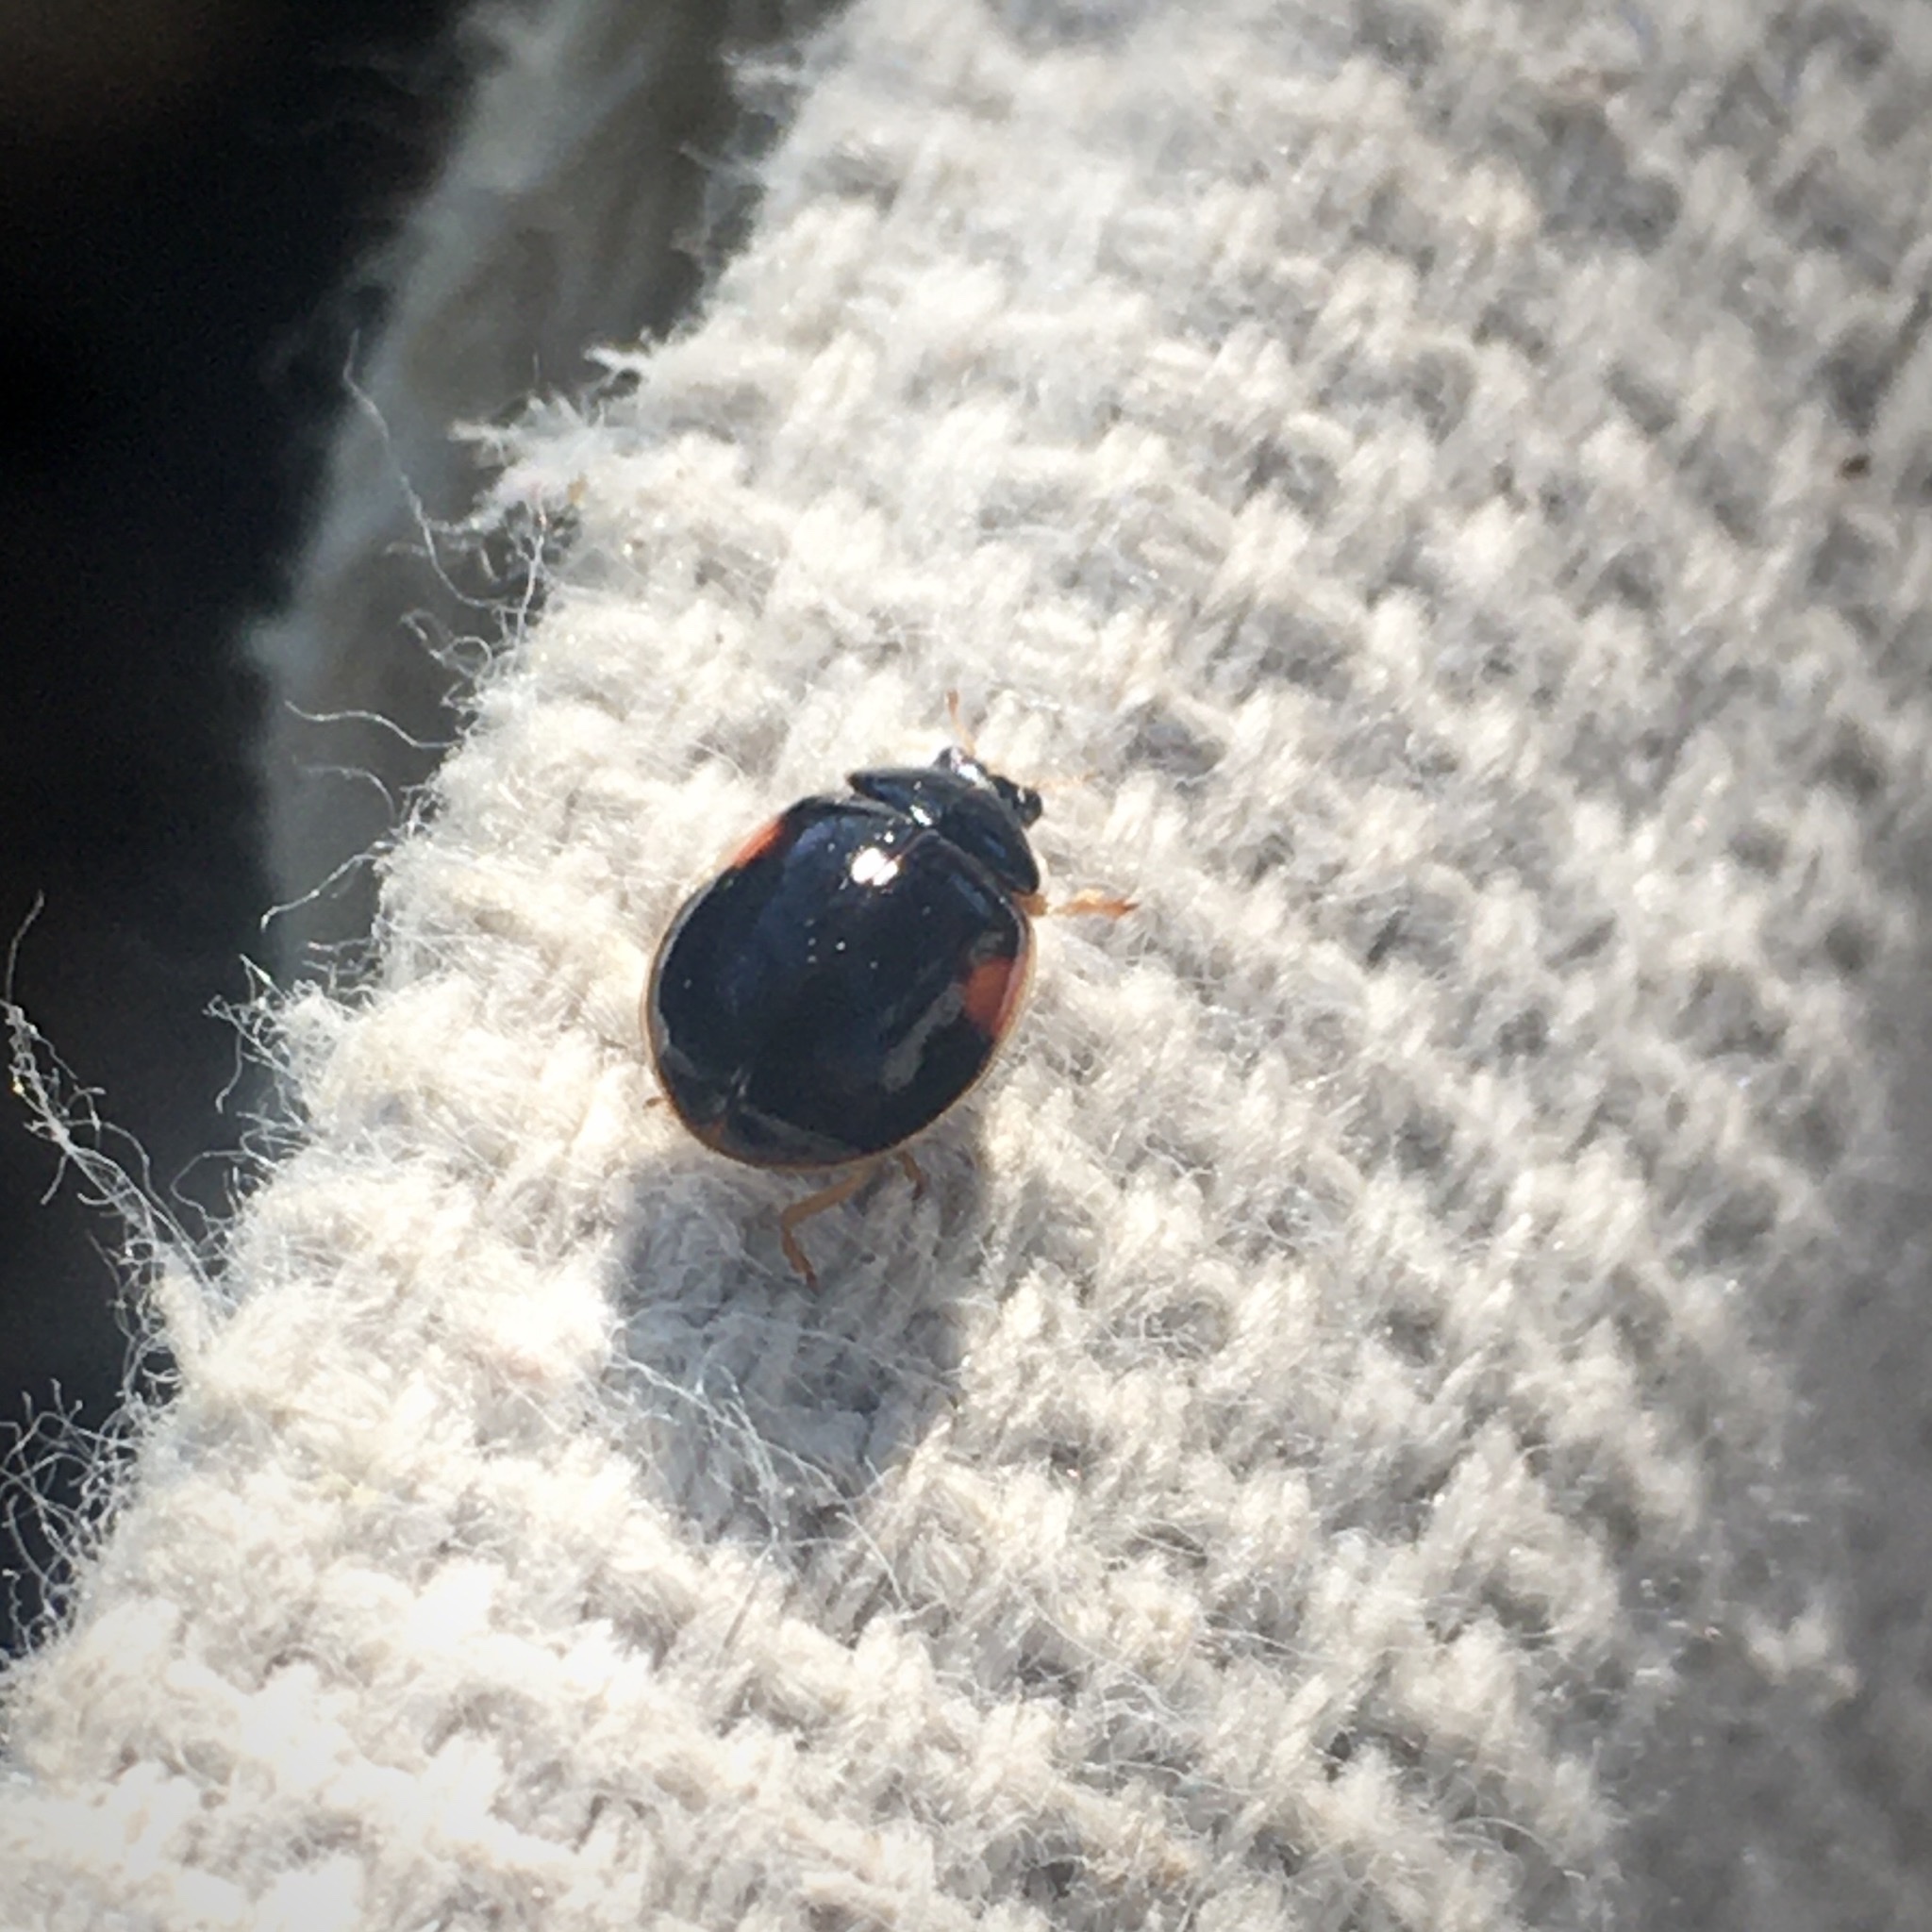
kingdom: Animalia
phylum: Arthropoda
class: Insecta
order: Coleoptera
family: Coccinellidae
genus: Adalia
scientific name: Adalia decempunctata
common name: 10-spot ladybird
